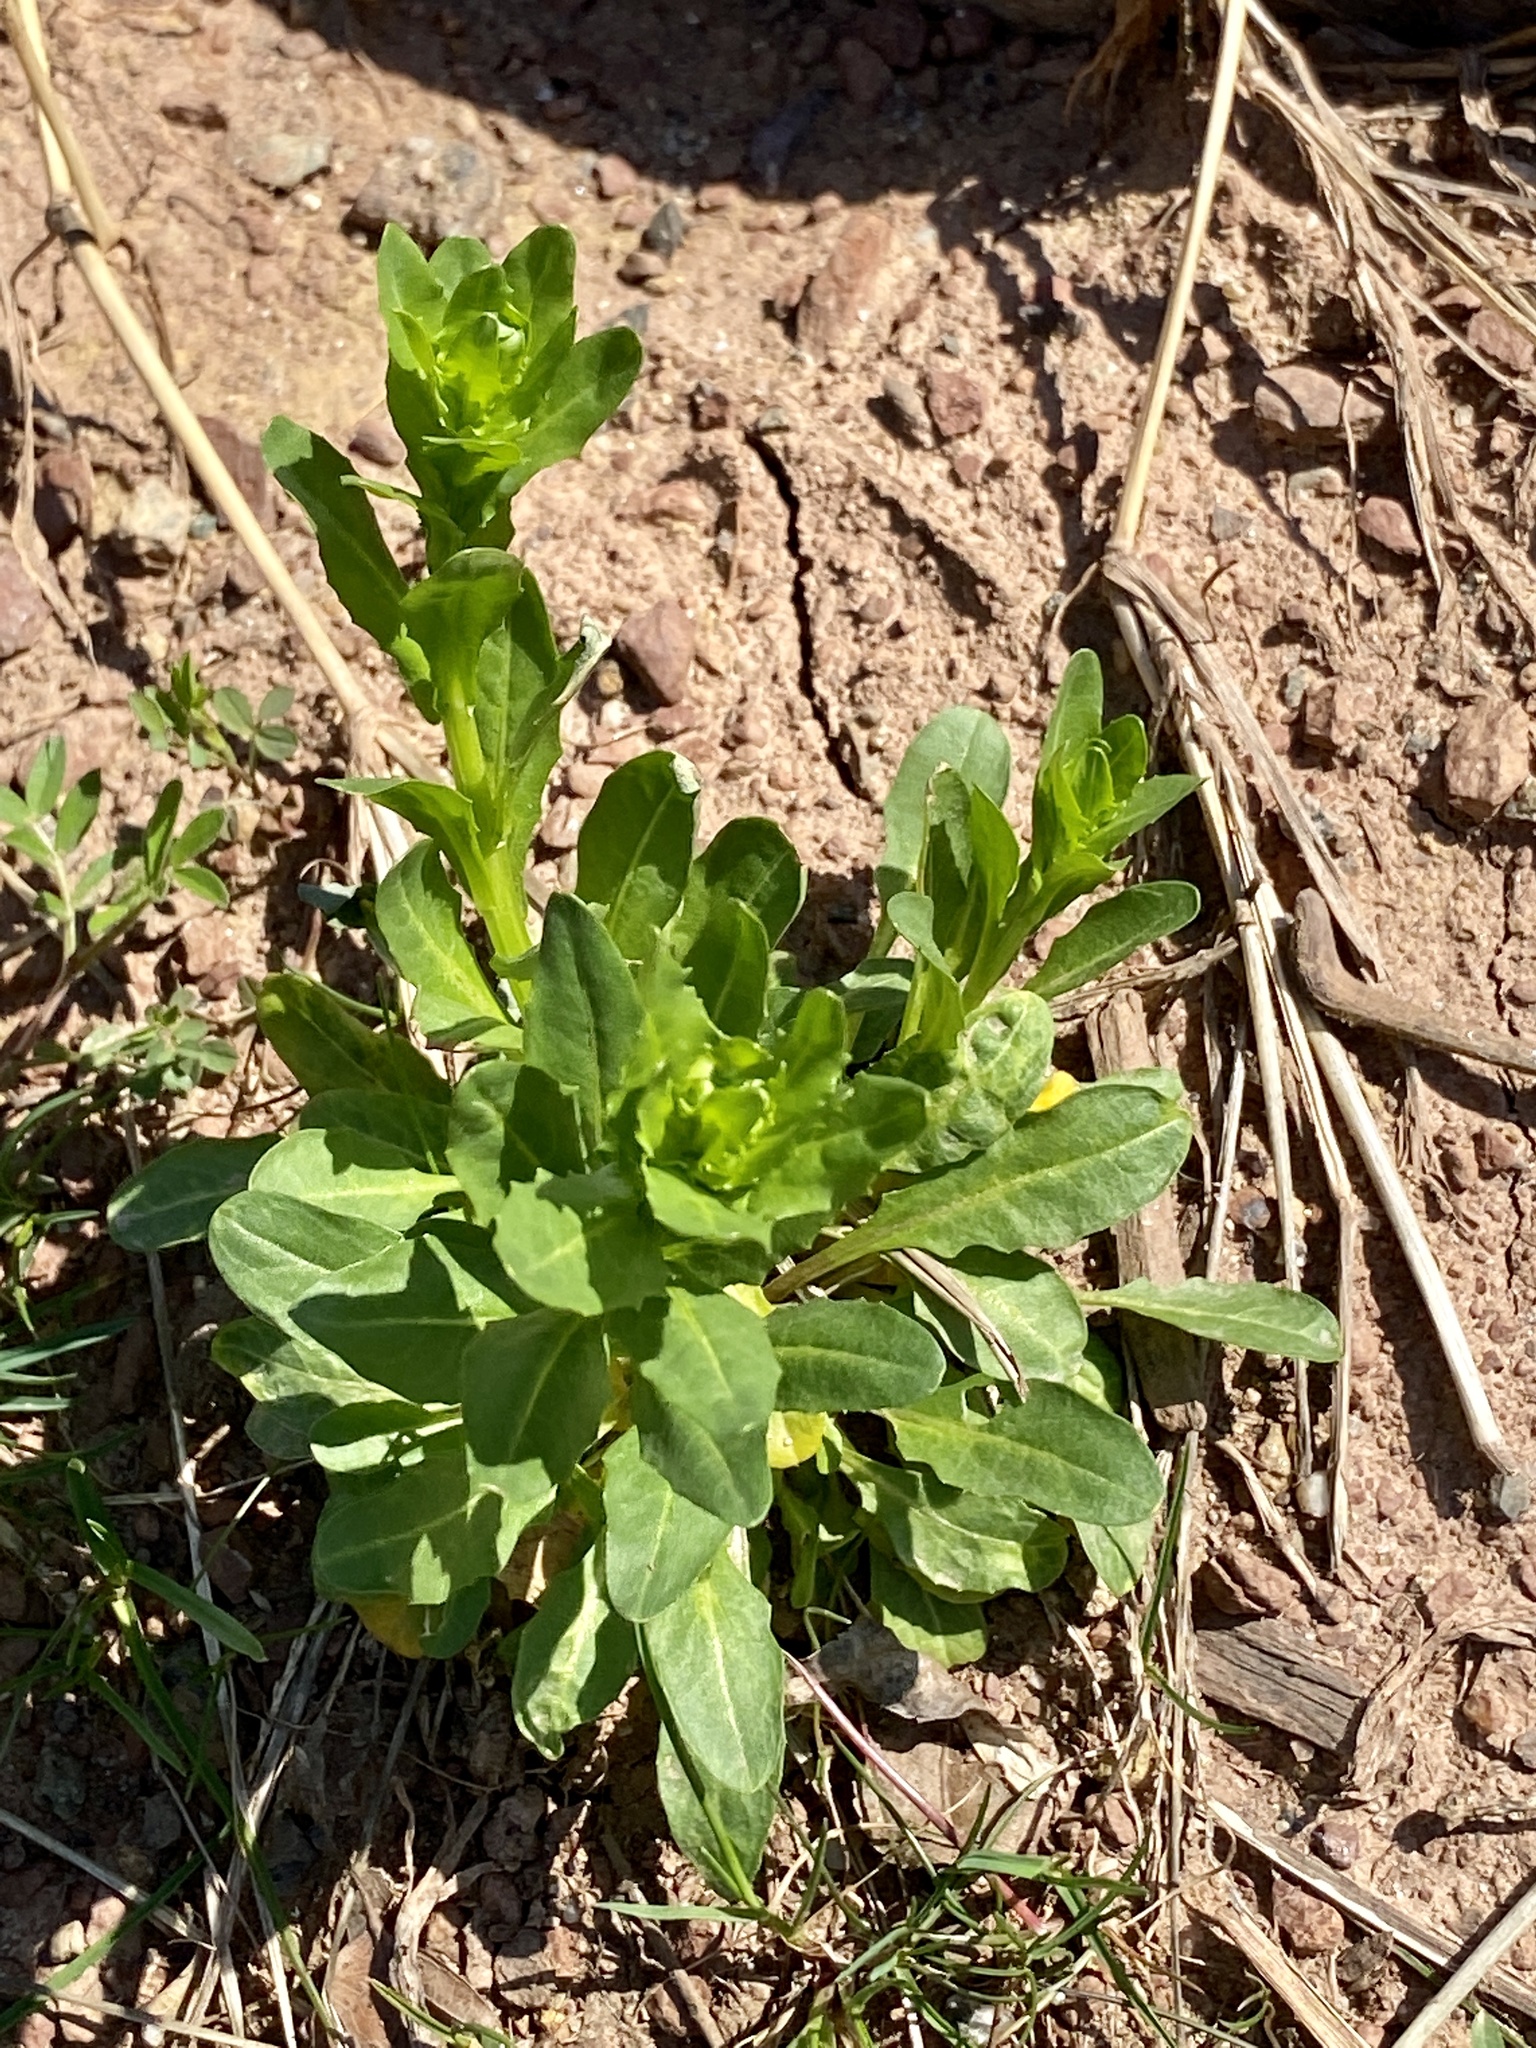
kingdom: Plantae
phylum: Tracheophyta
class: Magnoliopsida
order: Brassicales
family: Brassicaceae
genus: Thlaspi
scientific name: Thlaspi arvense
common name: Field pennycress
